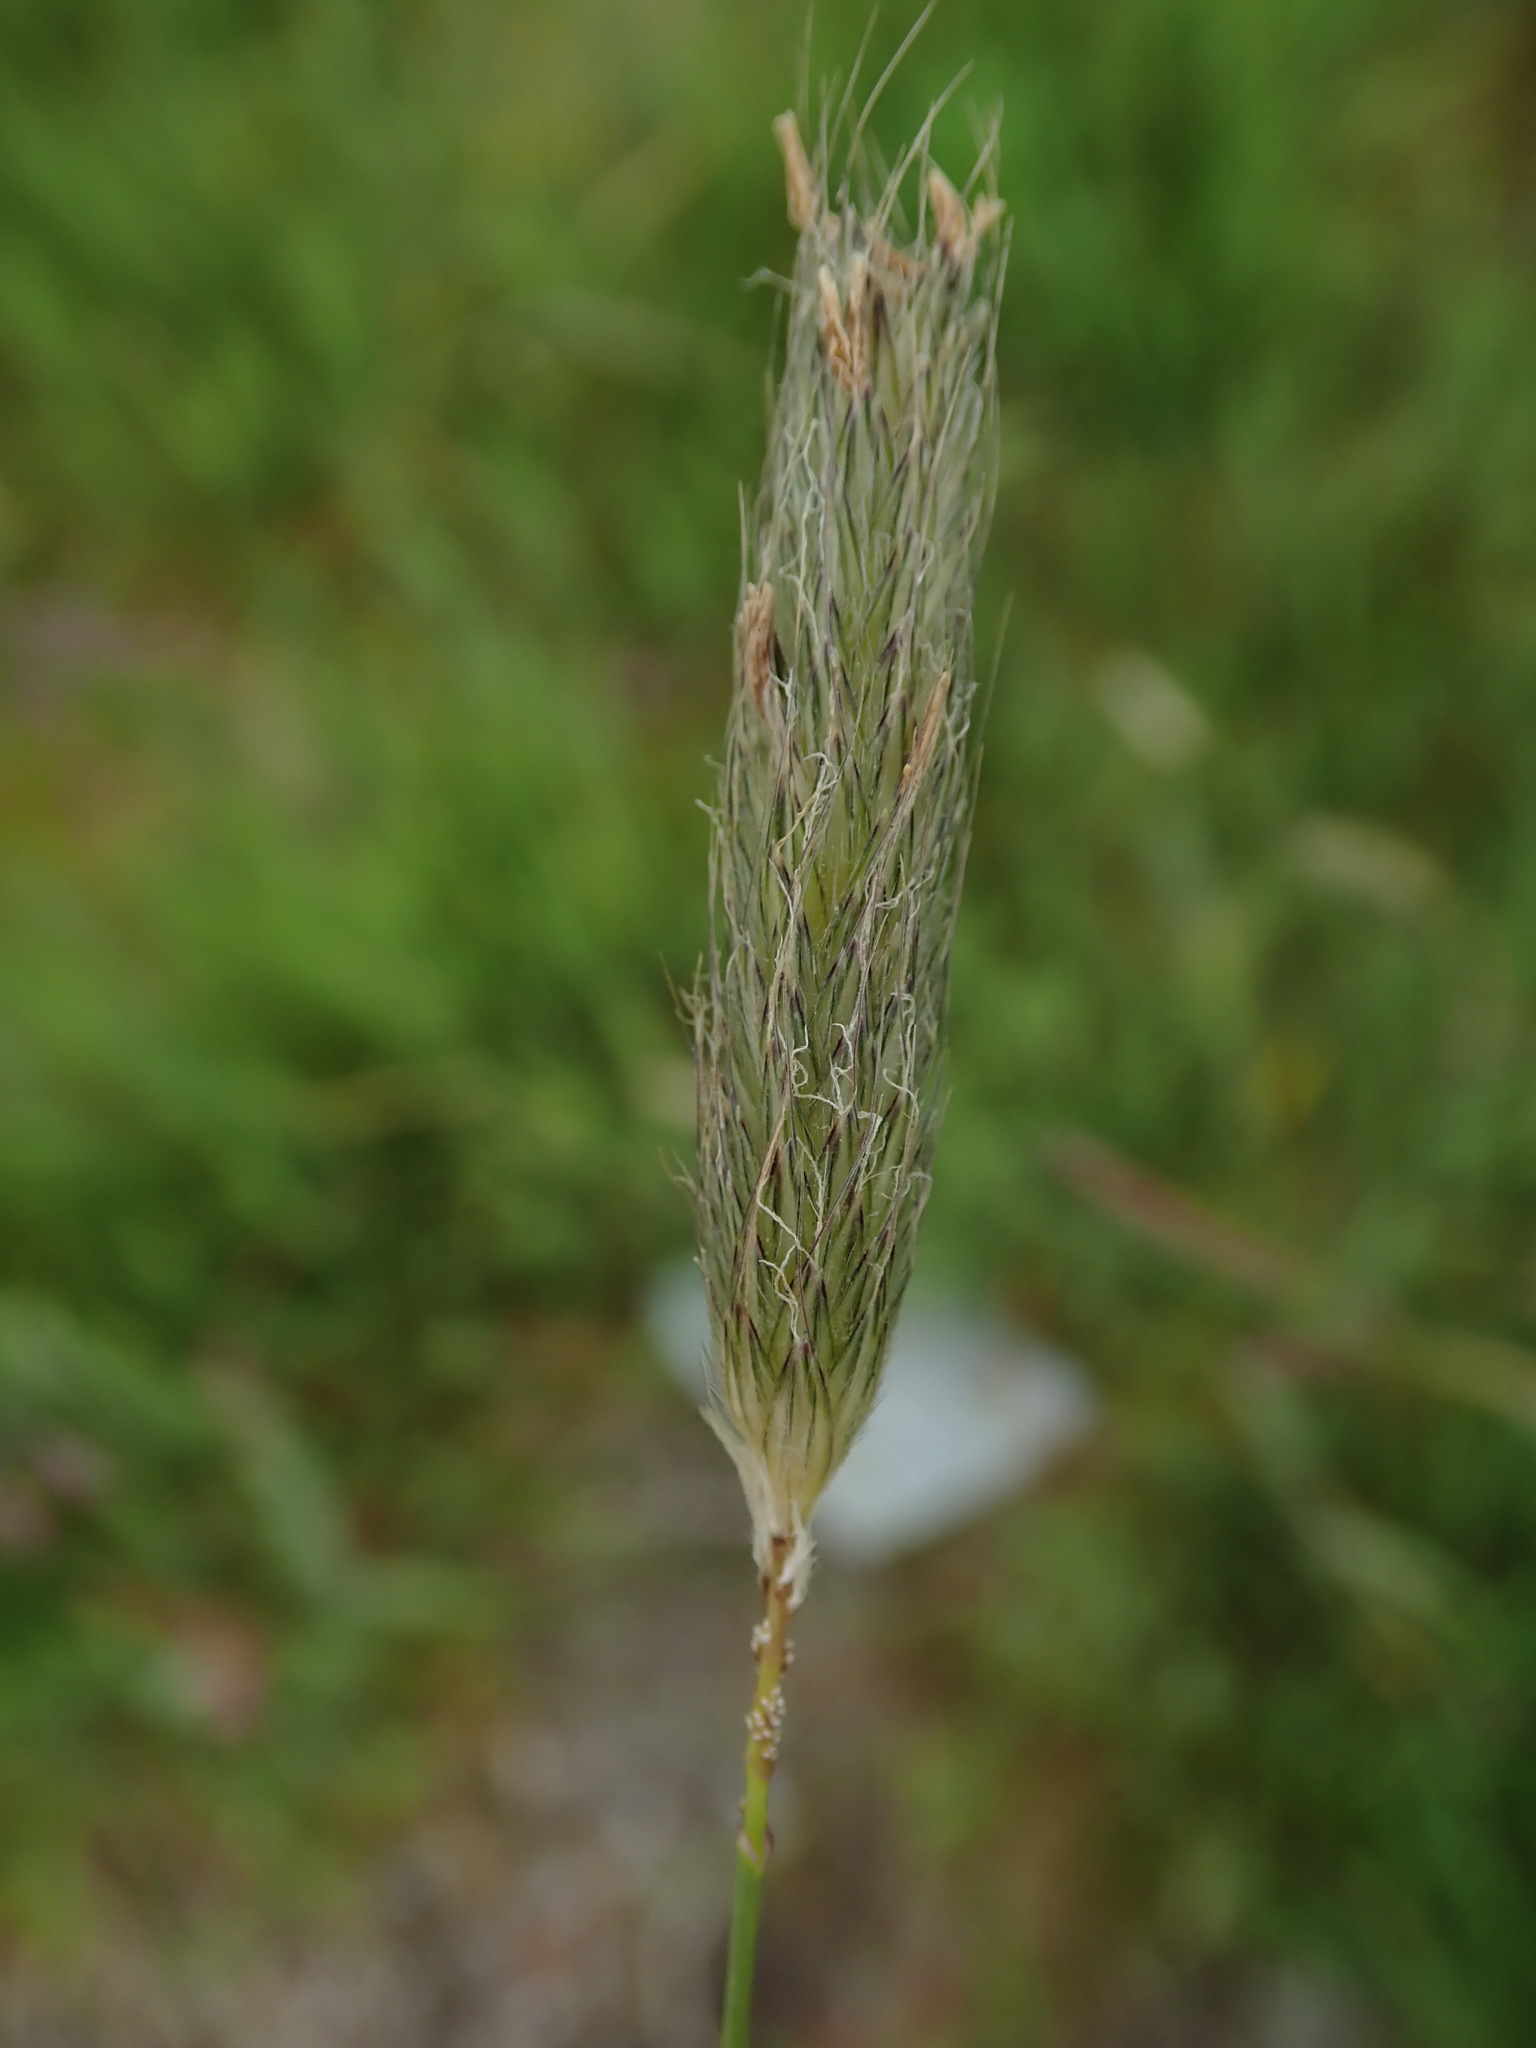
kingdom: Plantae
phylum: Tracheophyta
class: Liliopsida
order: Poales
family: Poaceae
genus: Alopecurus
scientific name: Alopecurus pratensis
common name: Meadow foxtail
